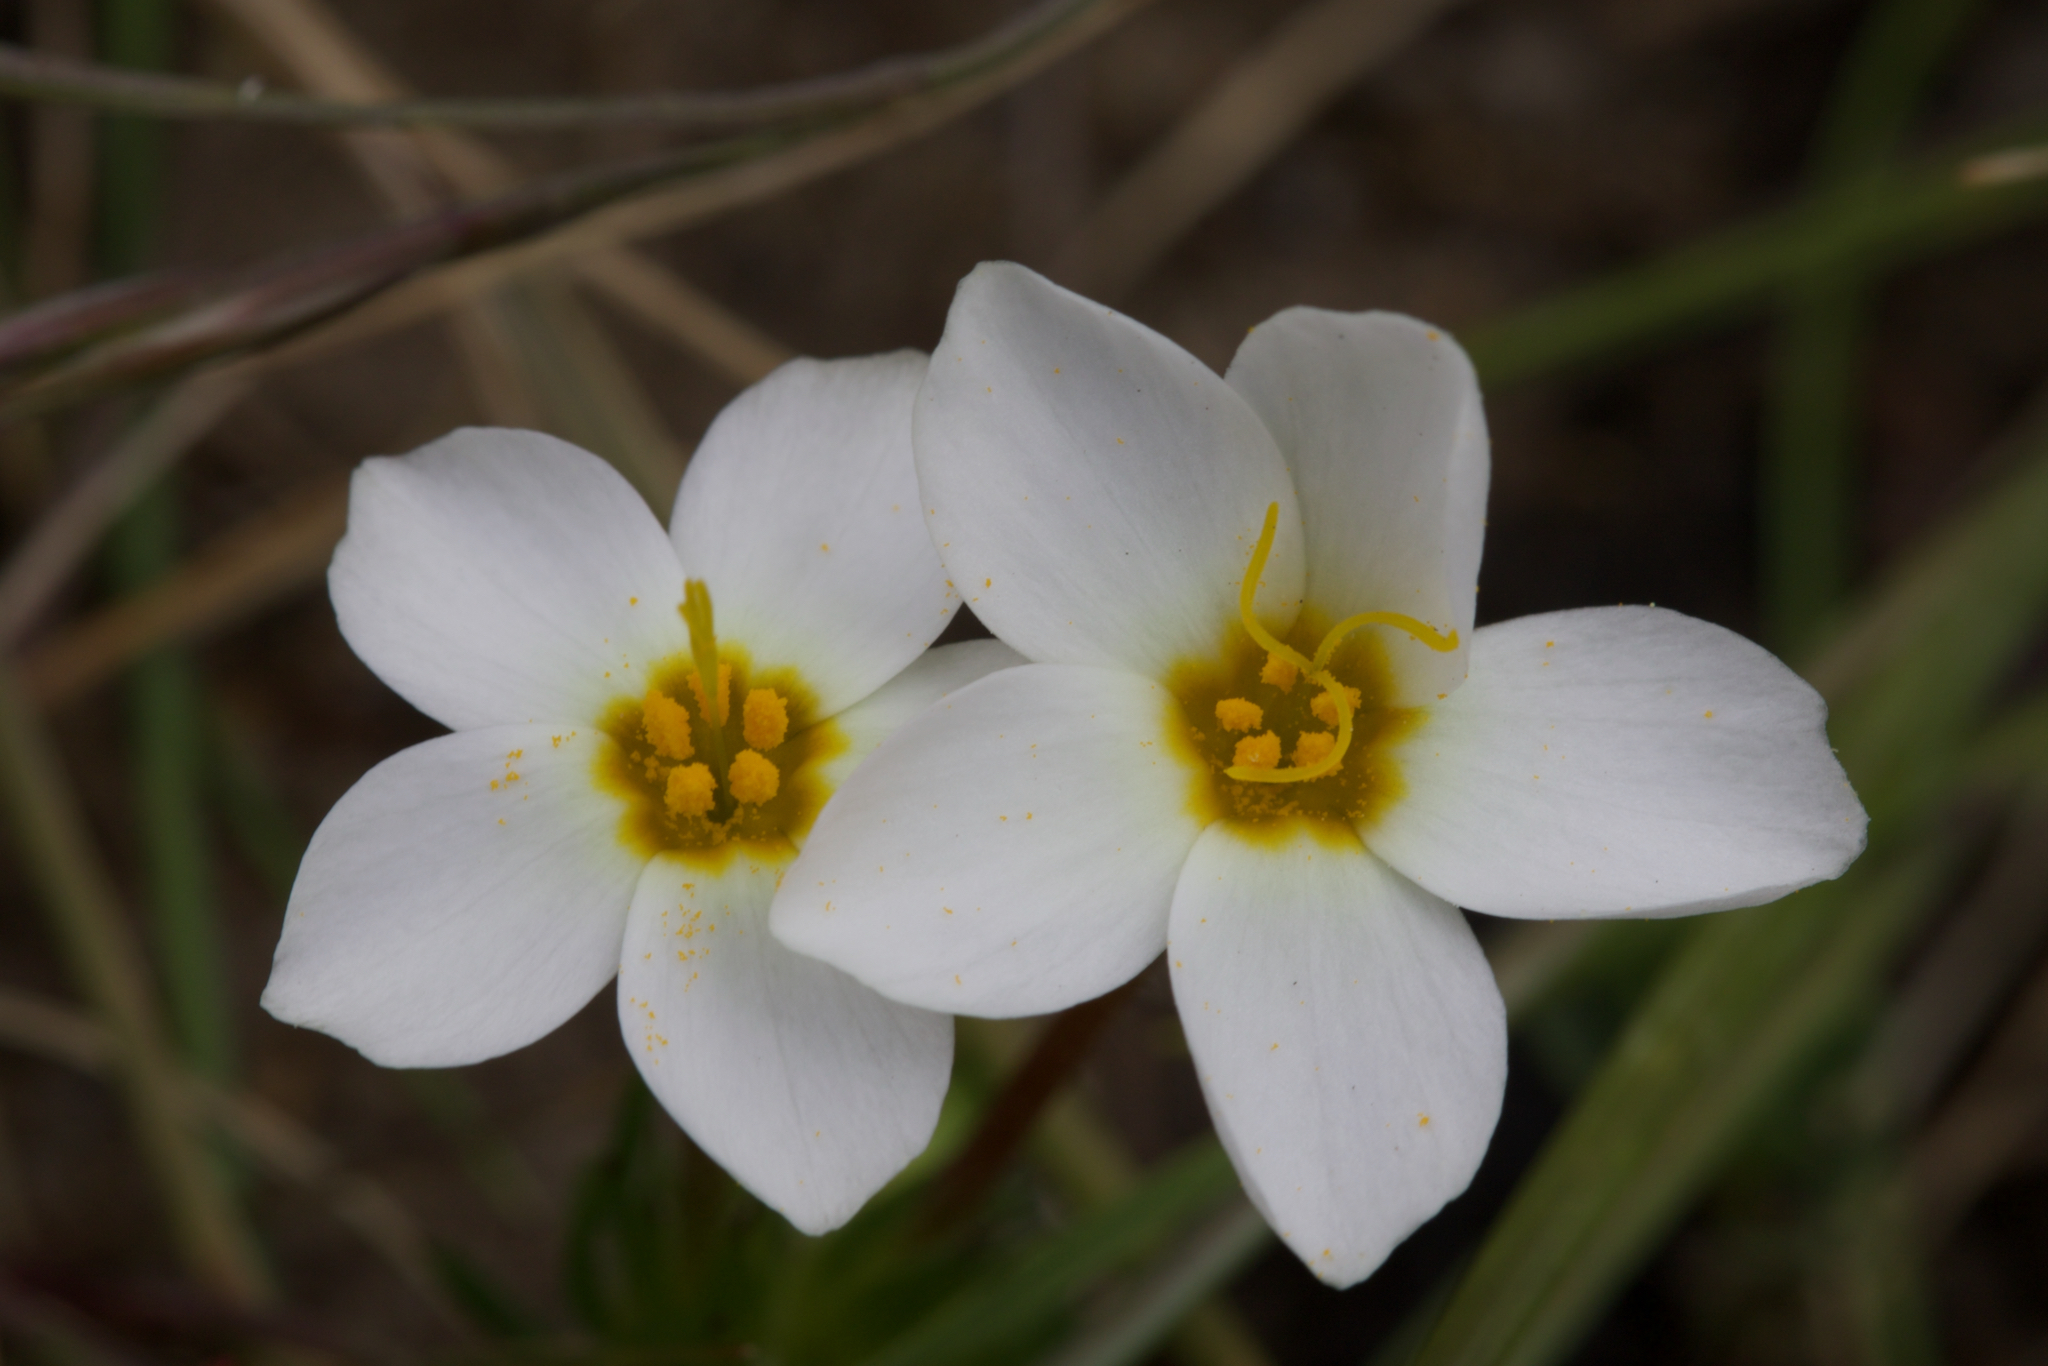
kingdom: Plantae
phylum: Tracheophyta
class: Magnoliopsida
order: Ericales
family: Polemoniaceae
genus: Leptosiphon
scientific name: Leptosiphon rosaceus
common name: Rose linanthus
